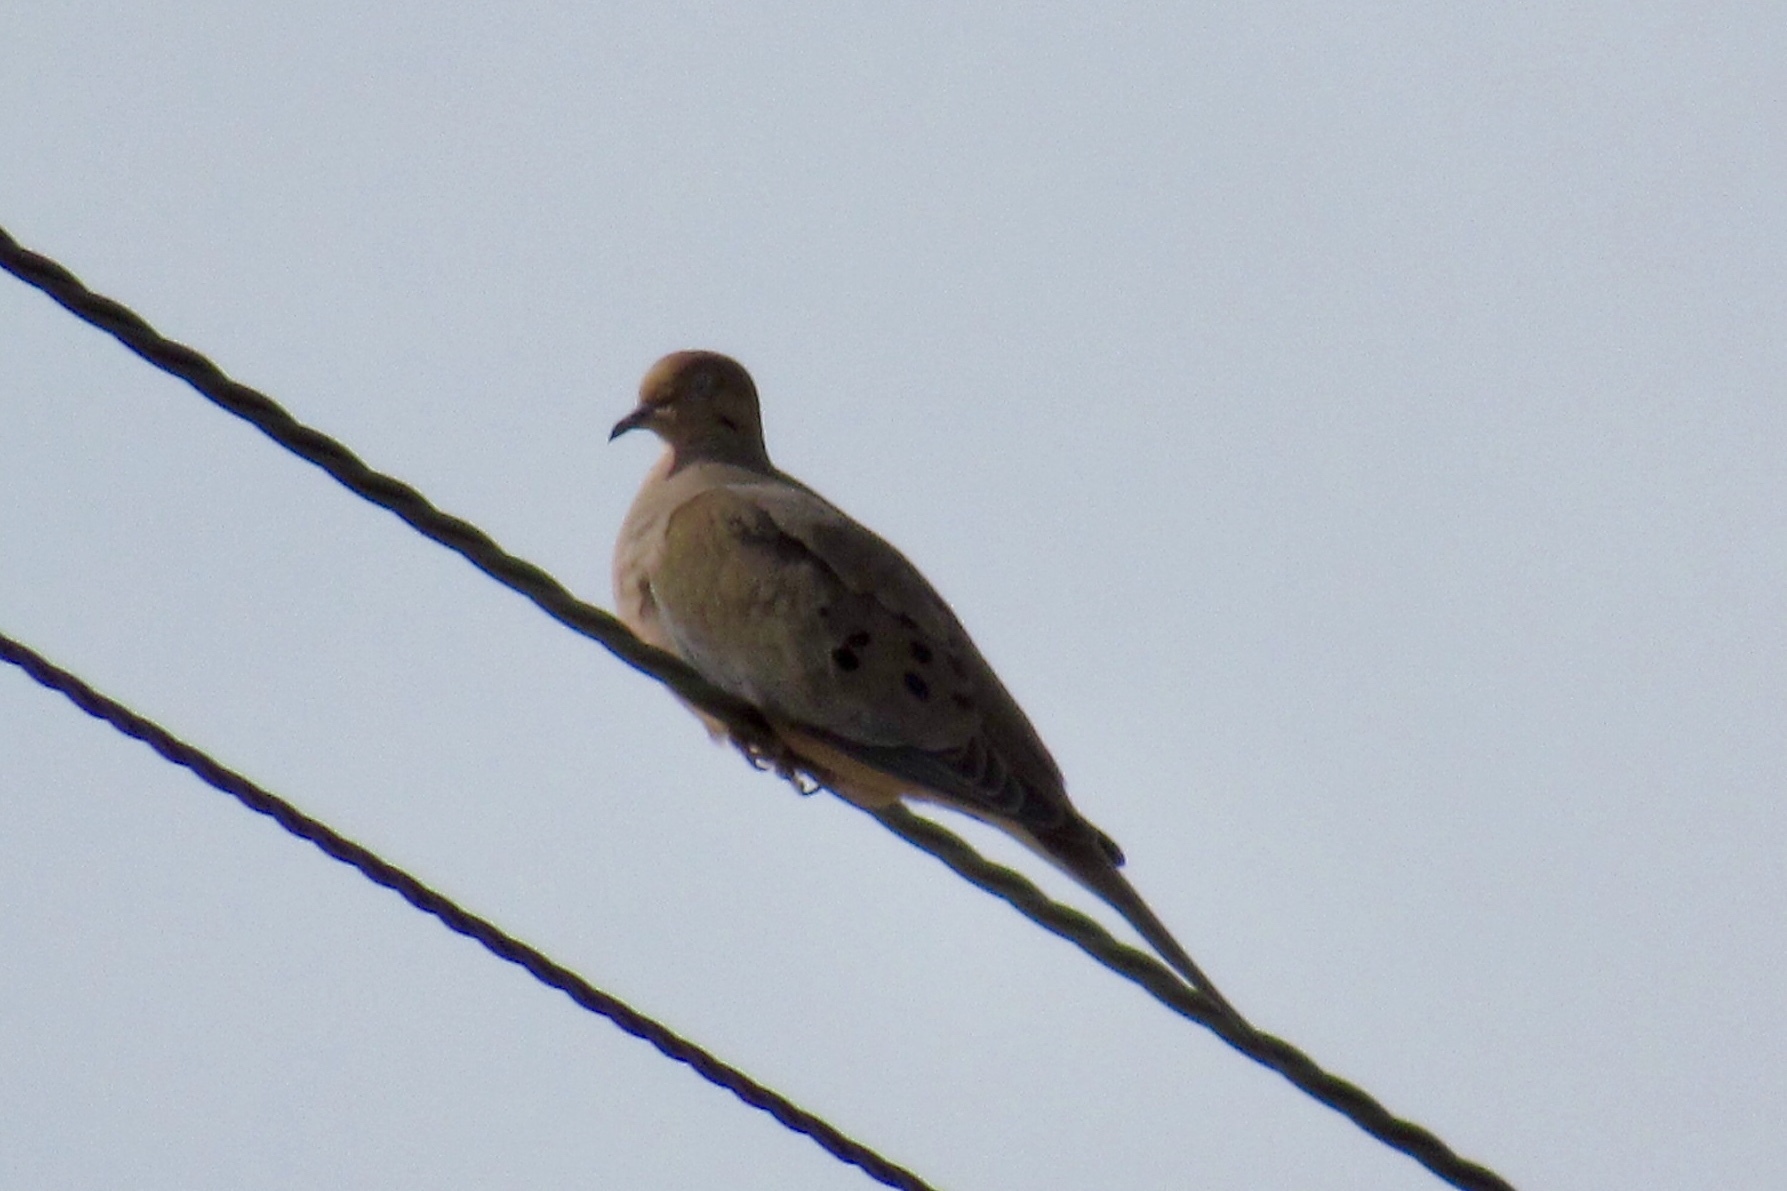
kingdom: Animalia
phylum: Chordata
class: Aves
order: Columbiformes
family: Columbidae
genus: Zenaida
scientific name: Zenaida macroura
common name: Mourning dove
